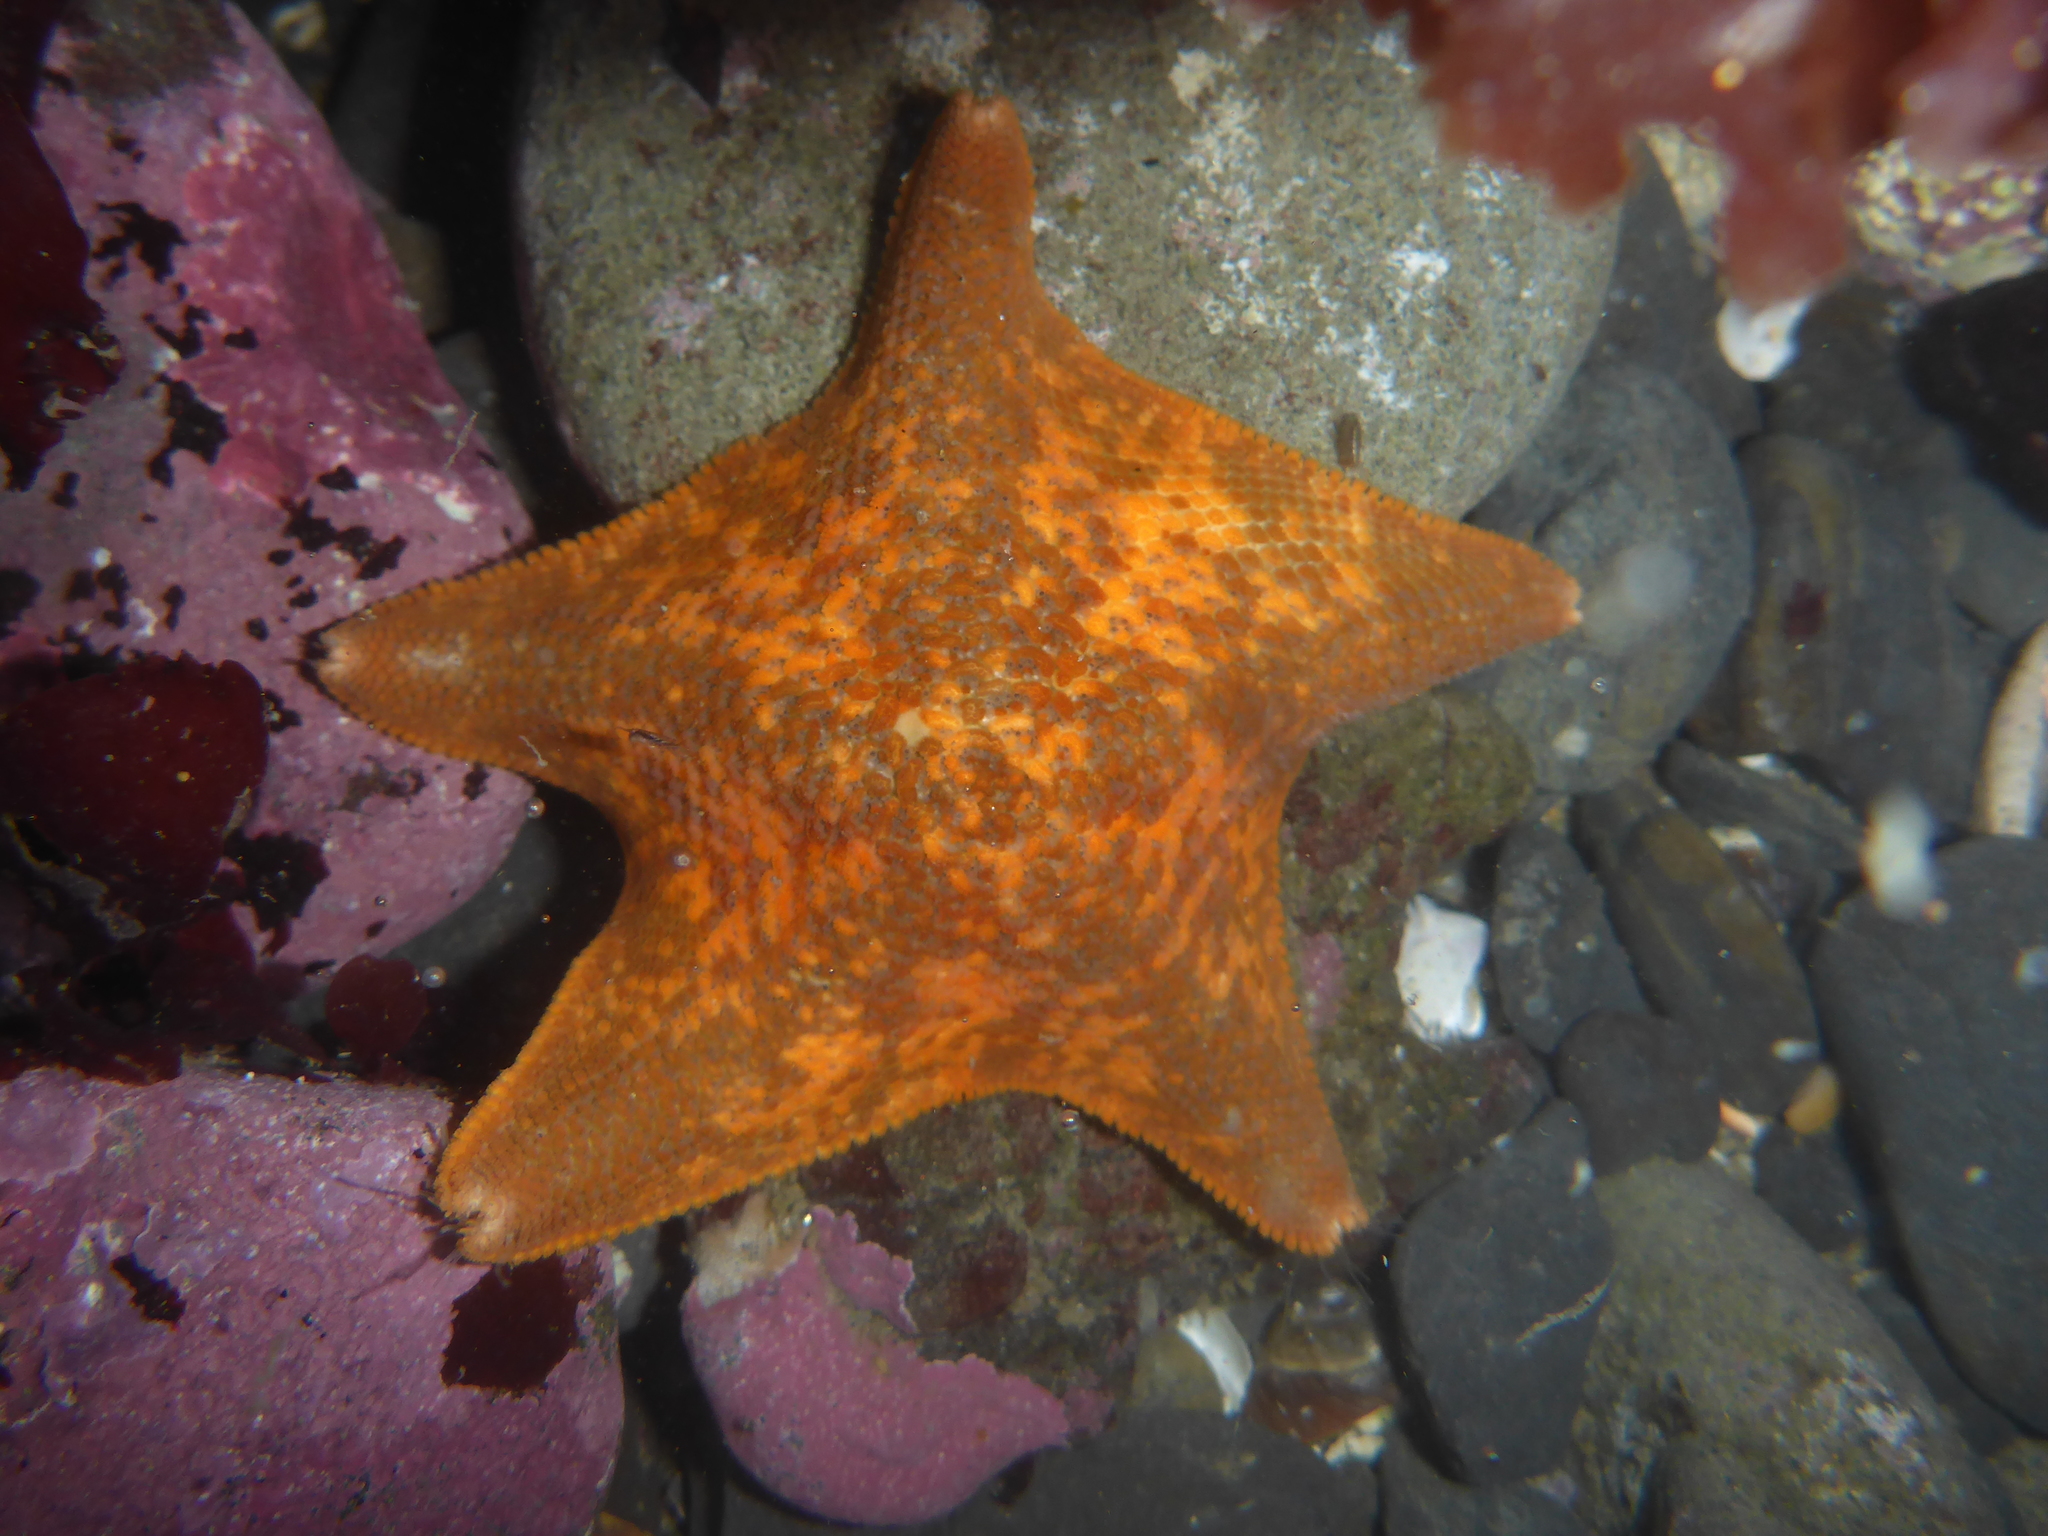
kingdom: Animalia
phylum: Echinodermata
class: Asteroidea
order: Valvatida
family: Asterinidae
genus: Patiria
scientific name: Patiria miniata
